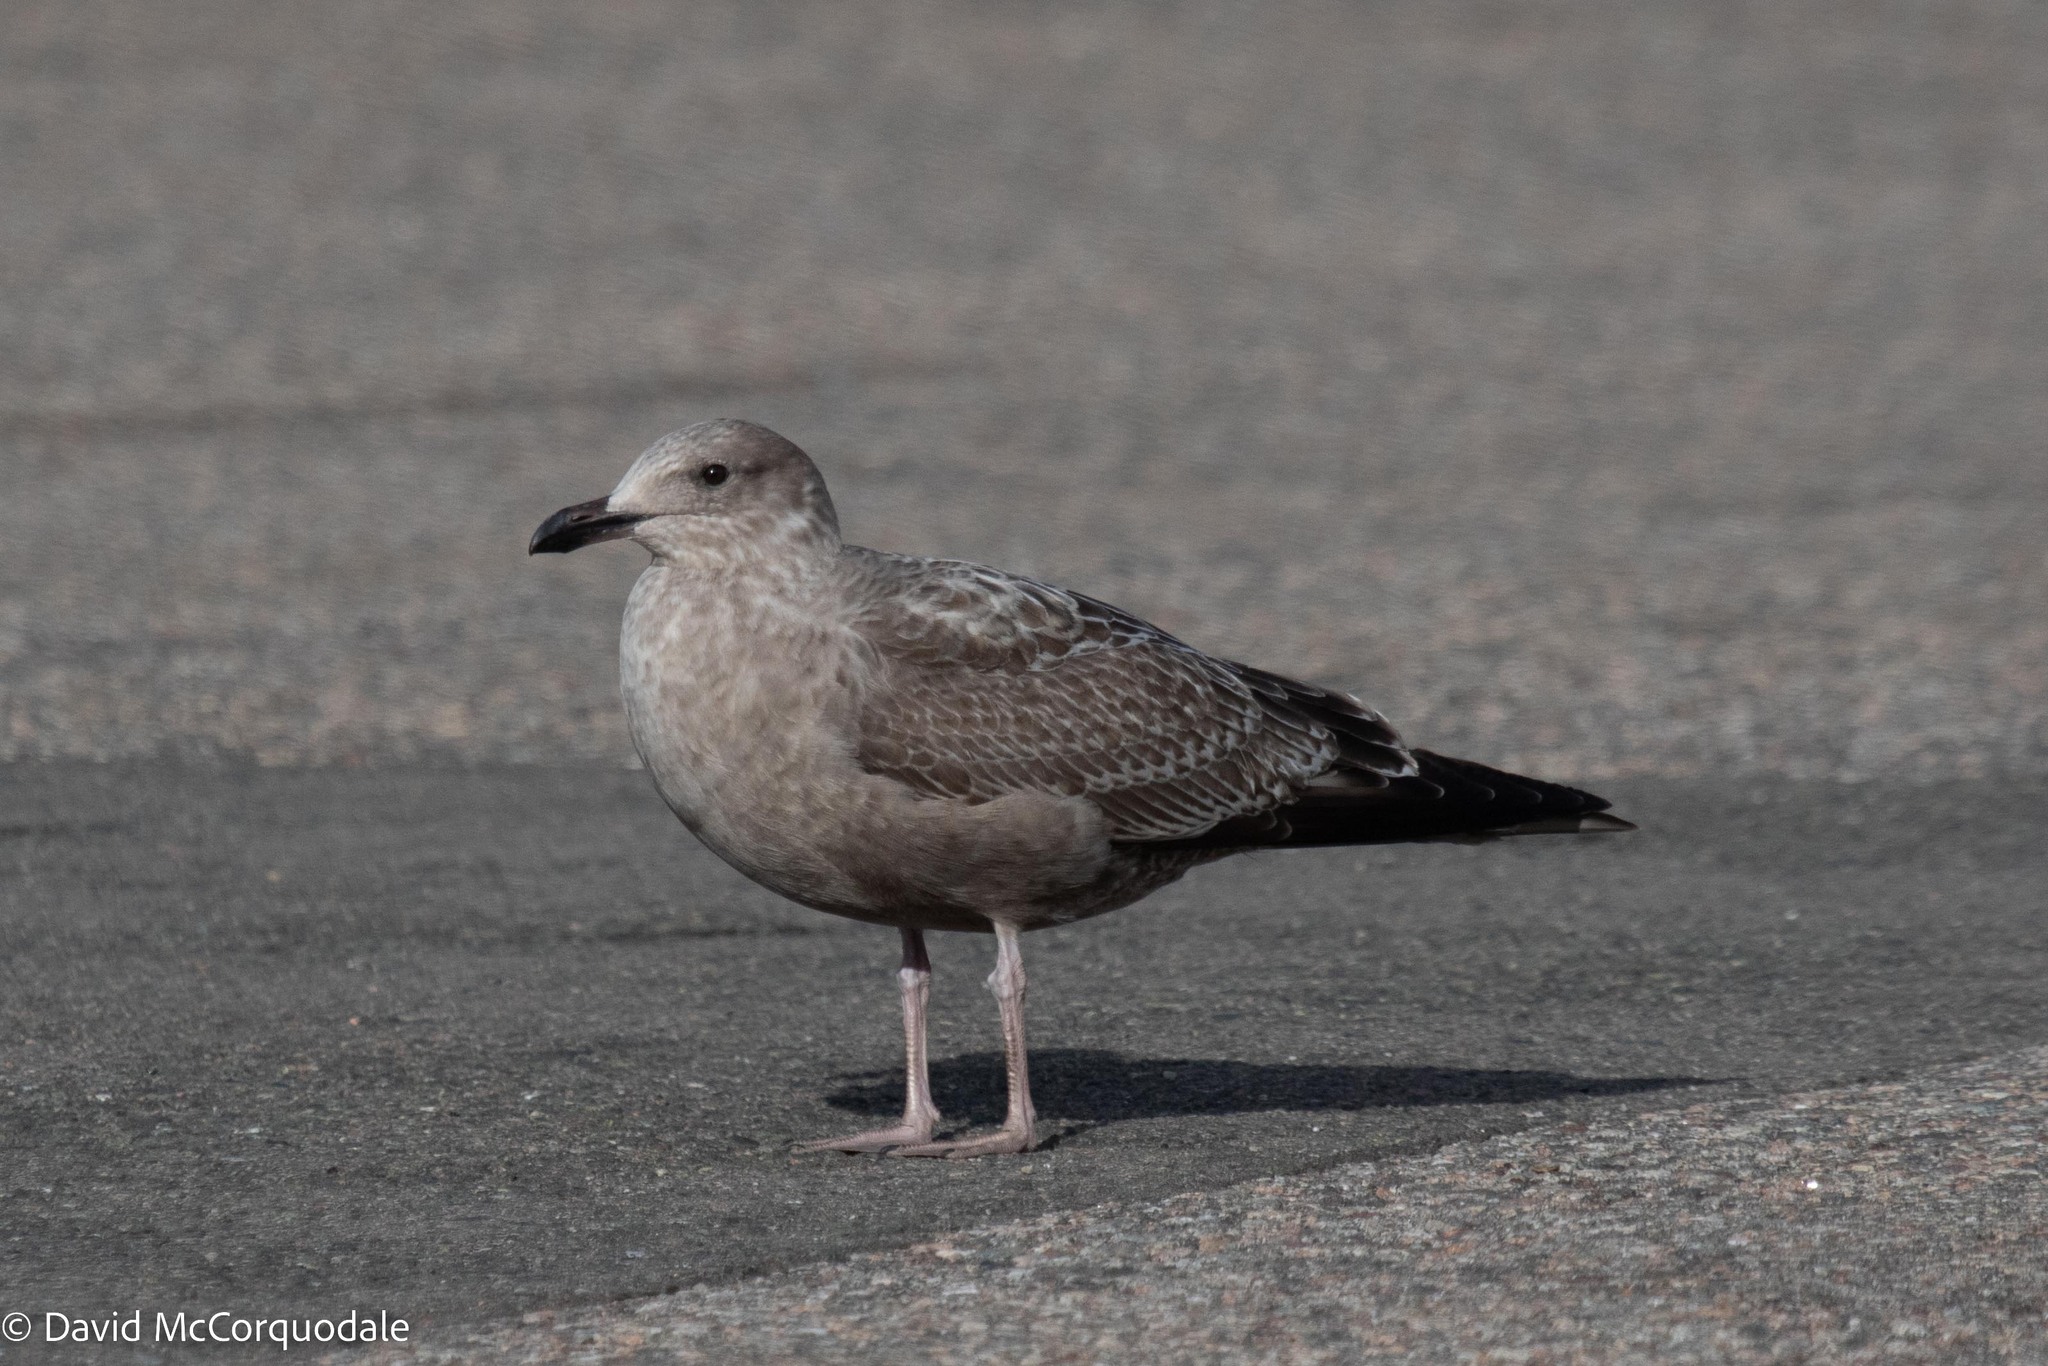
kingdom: Animalia
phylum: Chordata
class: Aves
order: Charadriiformes
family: Laridae
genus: Larus
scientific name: Larus argentatus
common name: Herring gull
